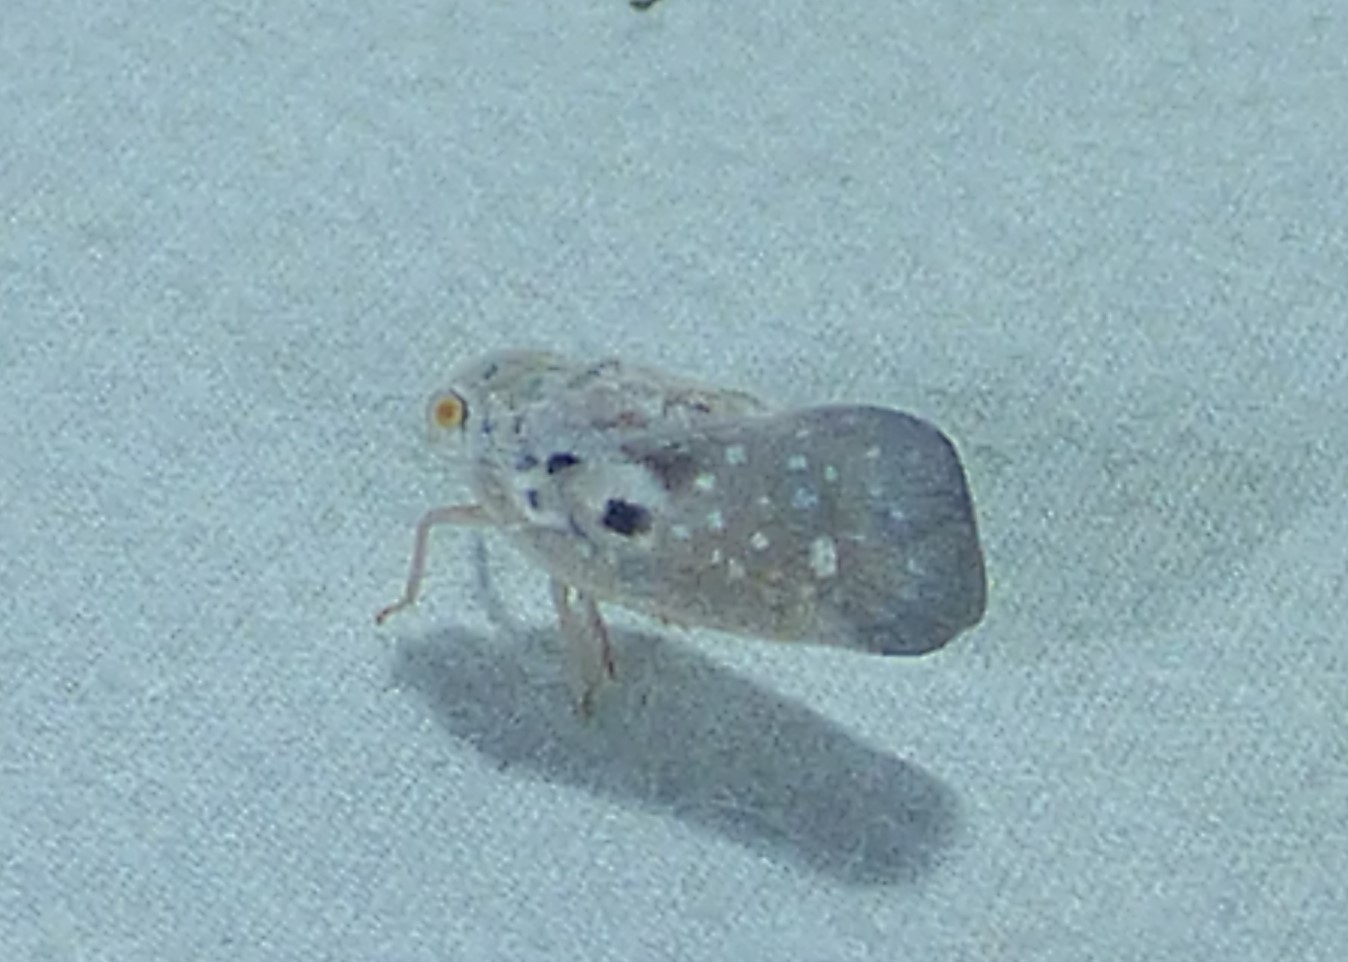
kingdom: Animalia
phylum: Arthropoda
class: Insecta
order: Hemiptera
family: Flatidae
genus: Metcalfa
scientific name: Metcalfa pruinosa
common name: Citrus flatid planthopper
